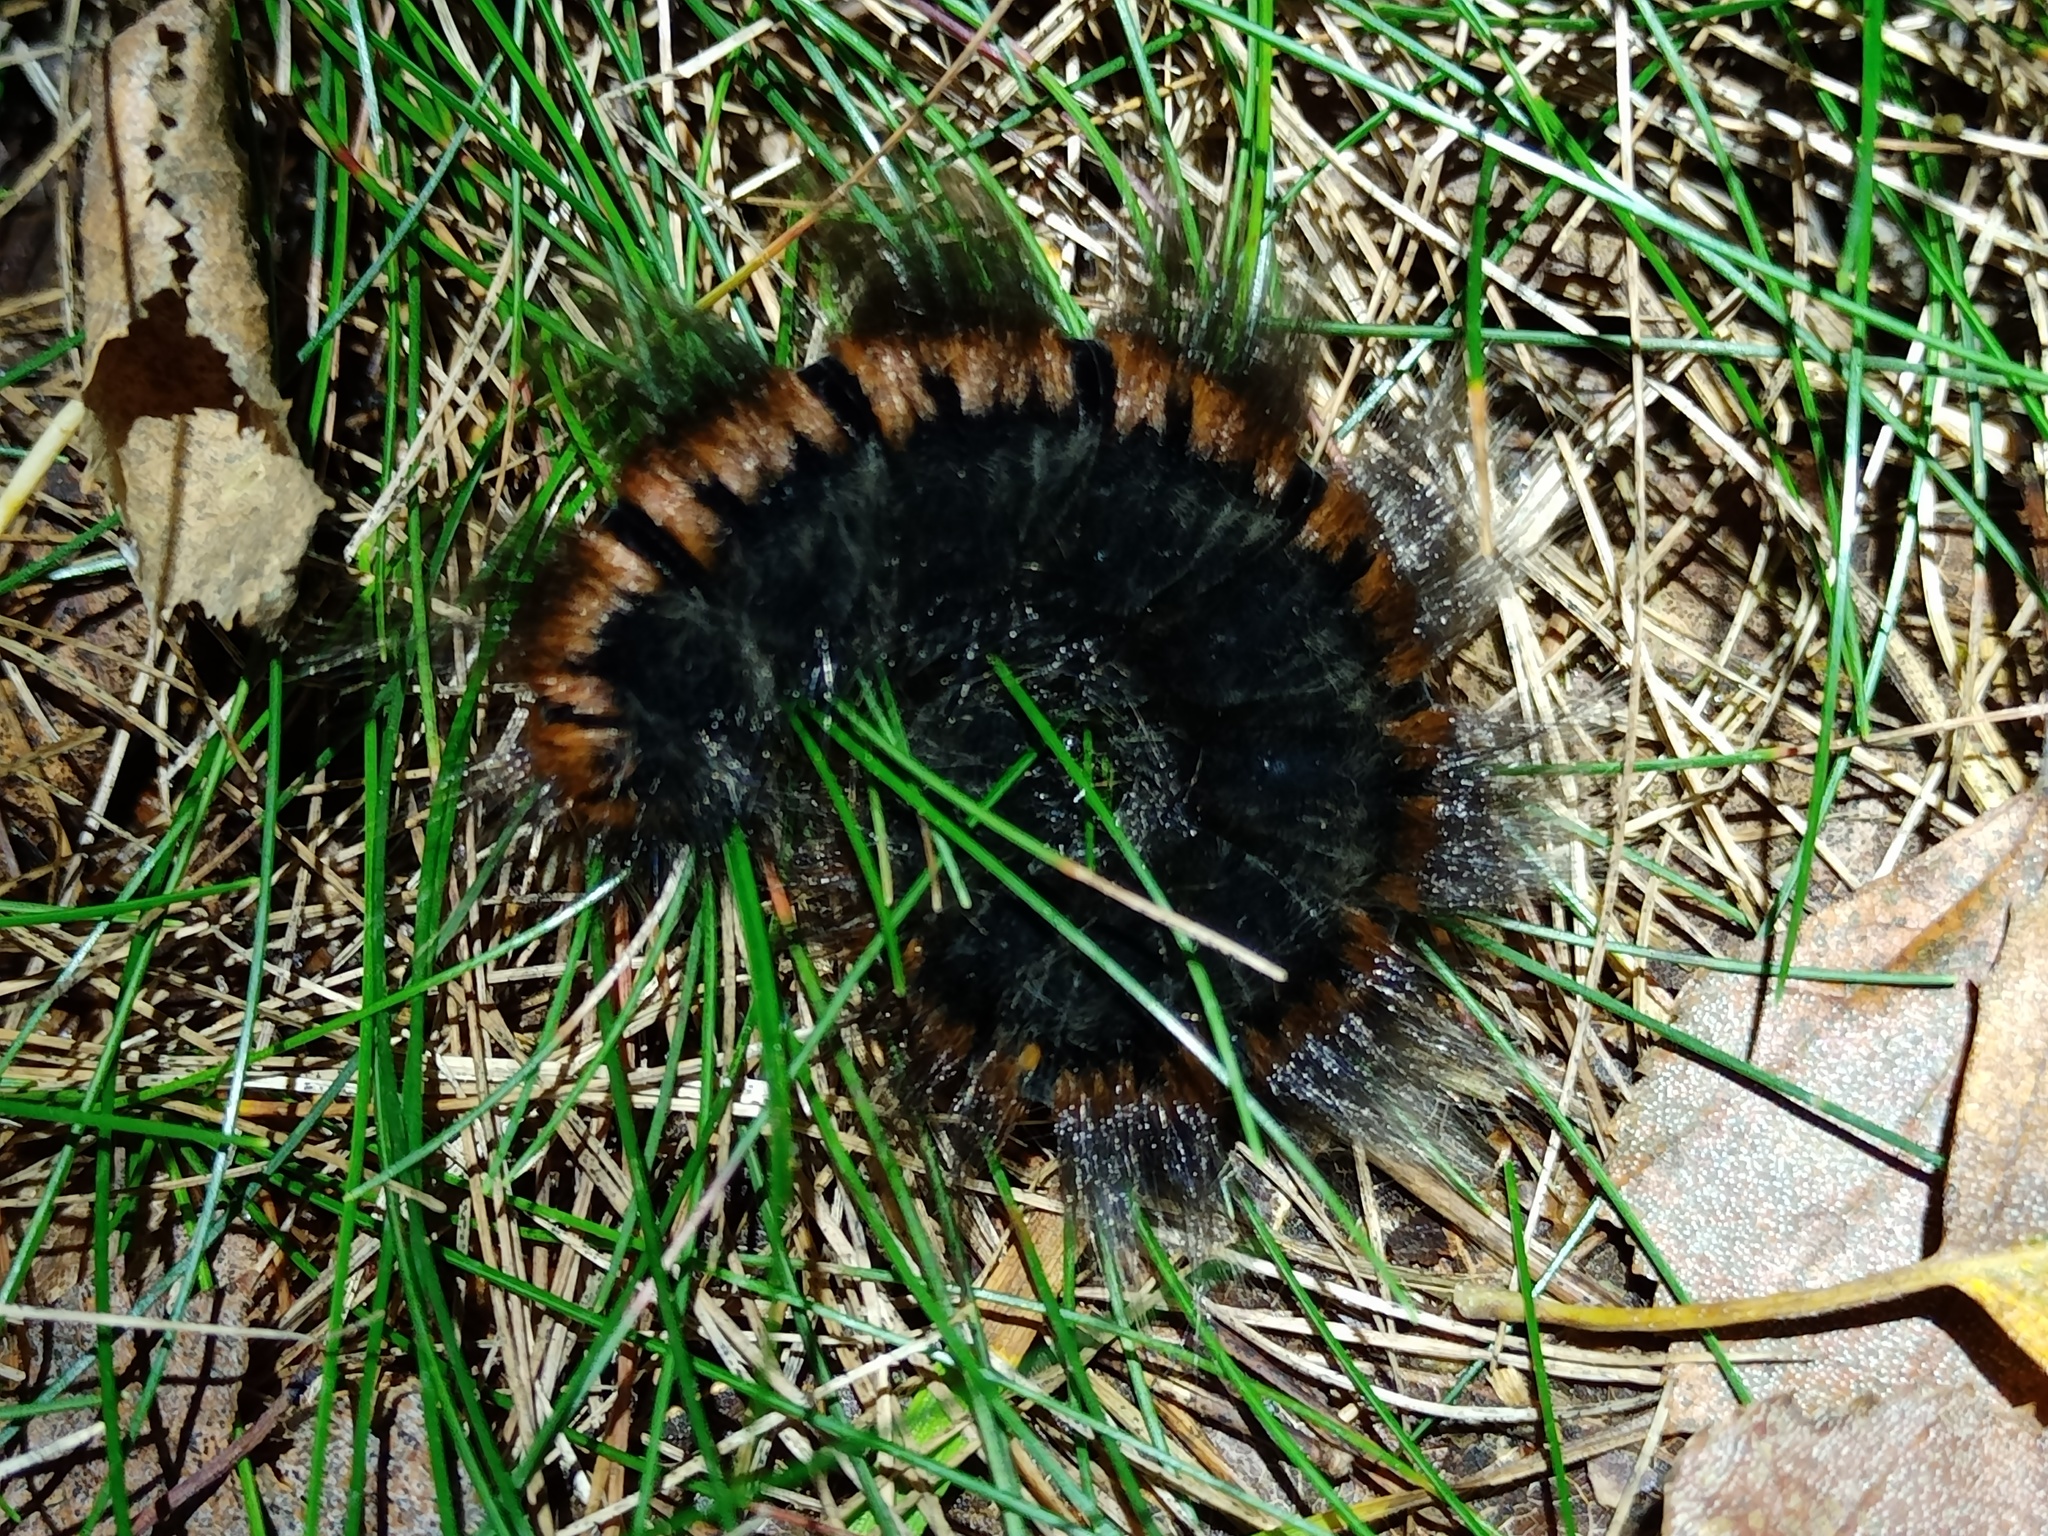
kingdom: Animalia
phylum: Arthropoda
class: Insecta
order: Lepidoptera
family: Lasiocampidae
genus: Macrothylacia
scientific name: Macrothylacia rubi
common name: Fox moth
